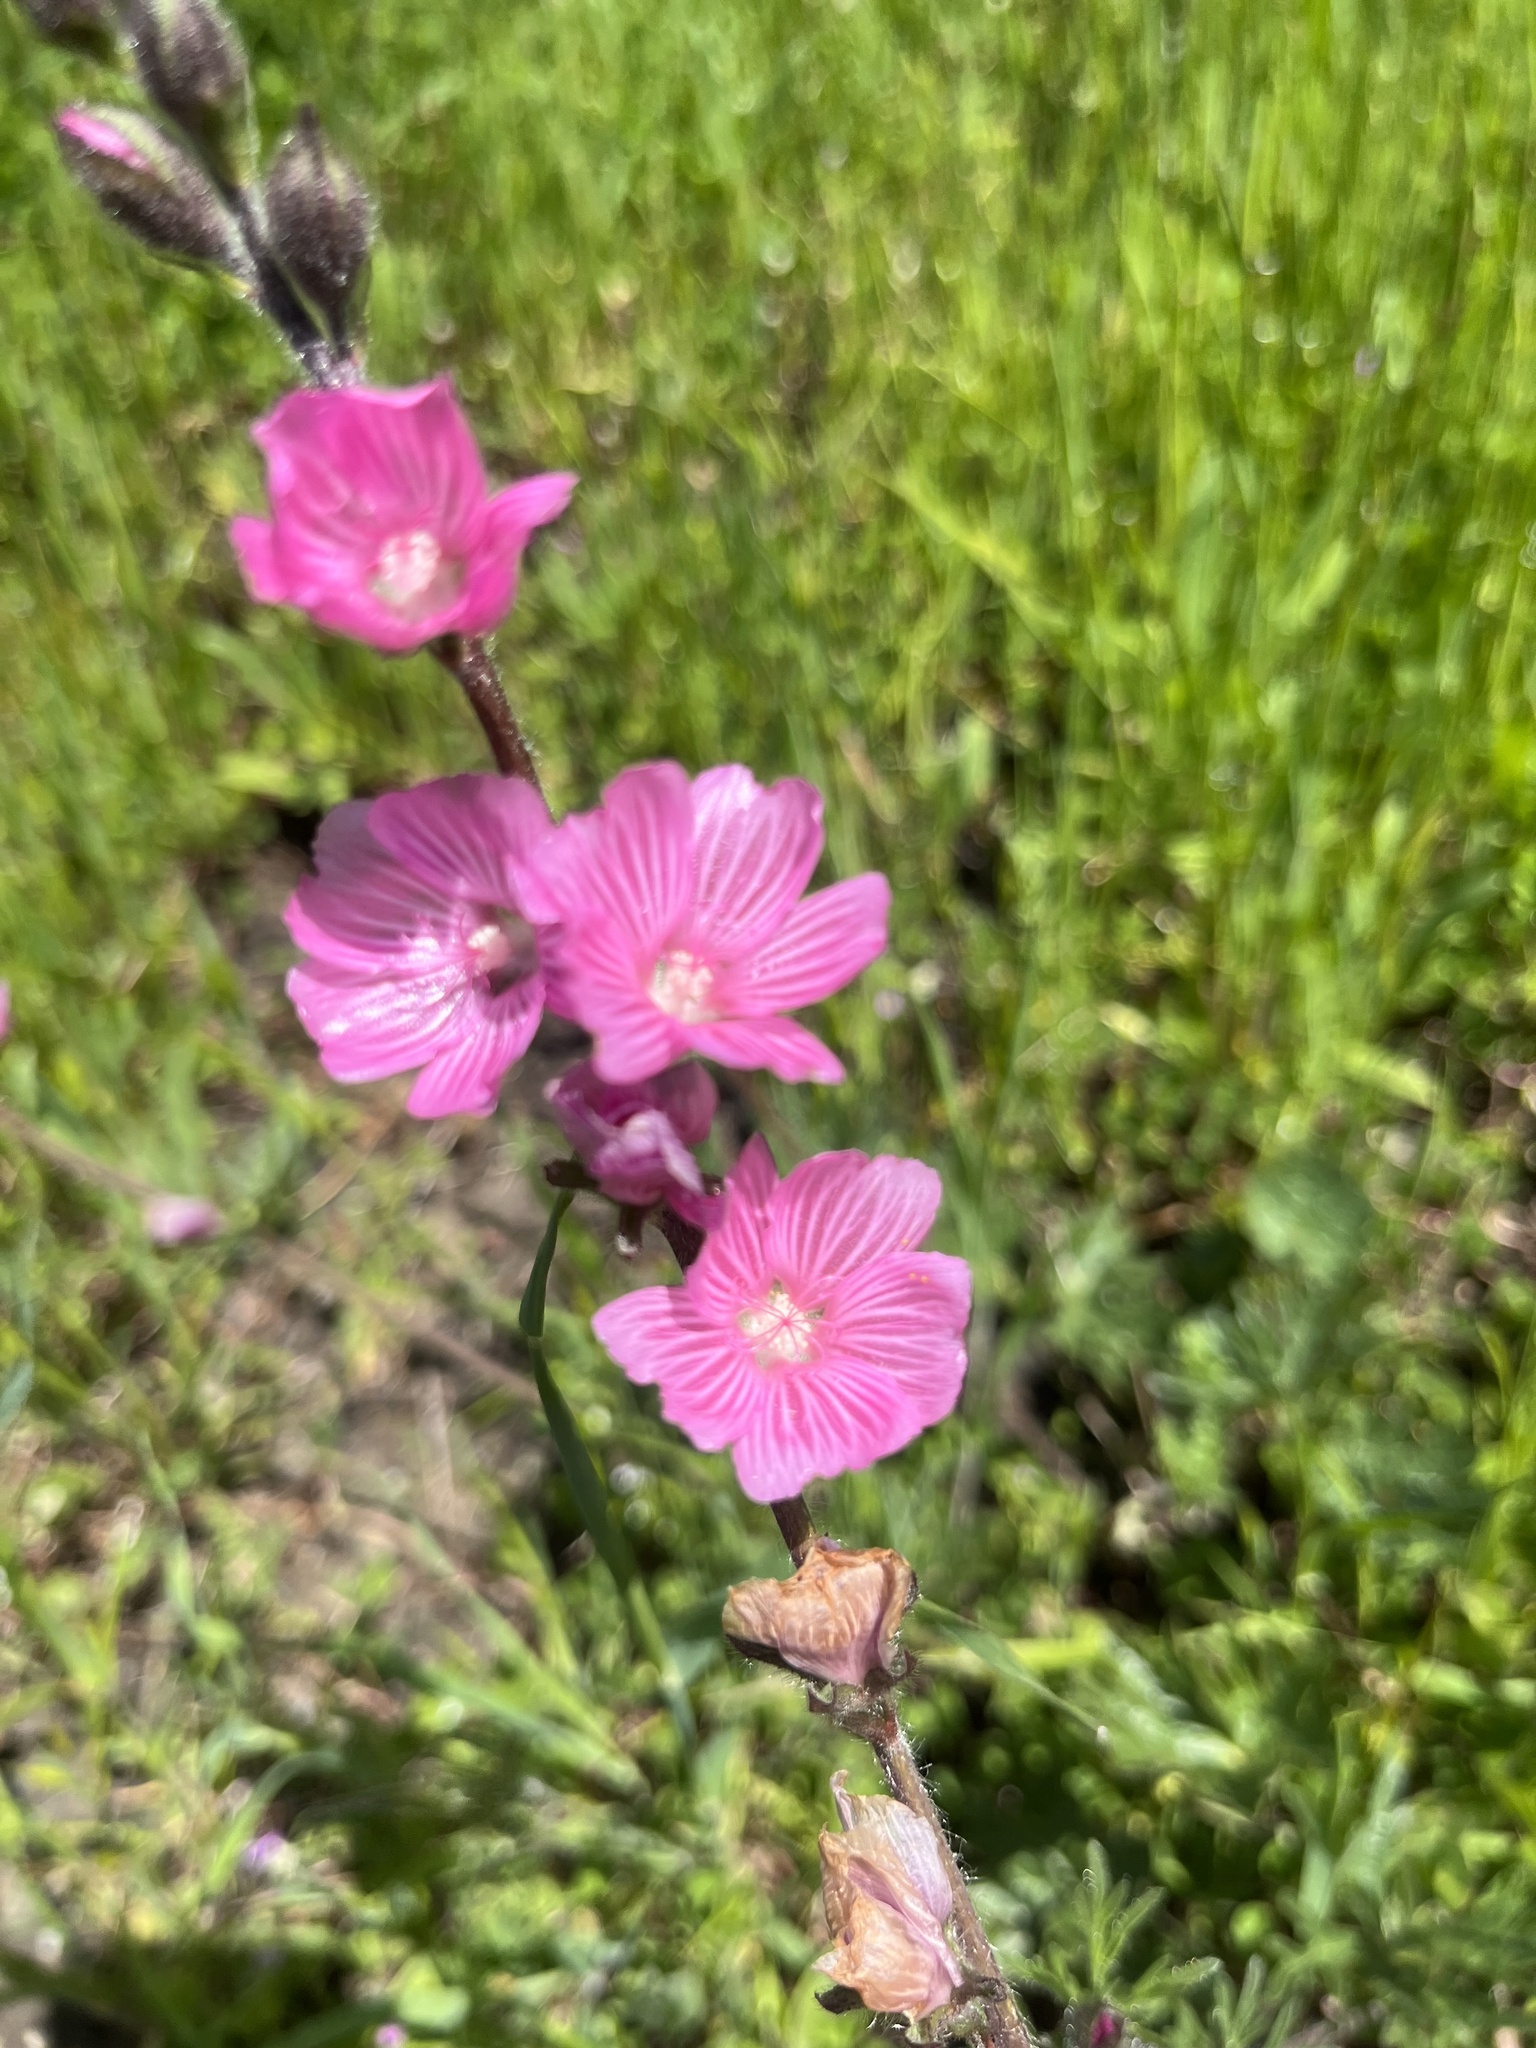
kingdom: Plantae
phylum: Tracheophyta
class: Magnoliopsida
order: Malvales
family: Malvaceae
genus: Sidalcea
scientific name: Sidalcea malviflora
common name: Greek mallow
